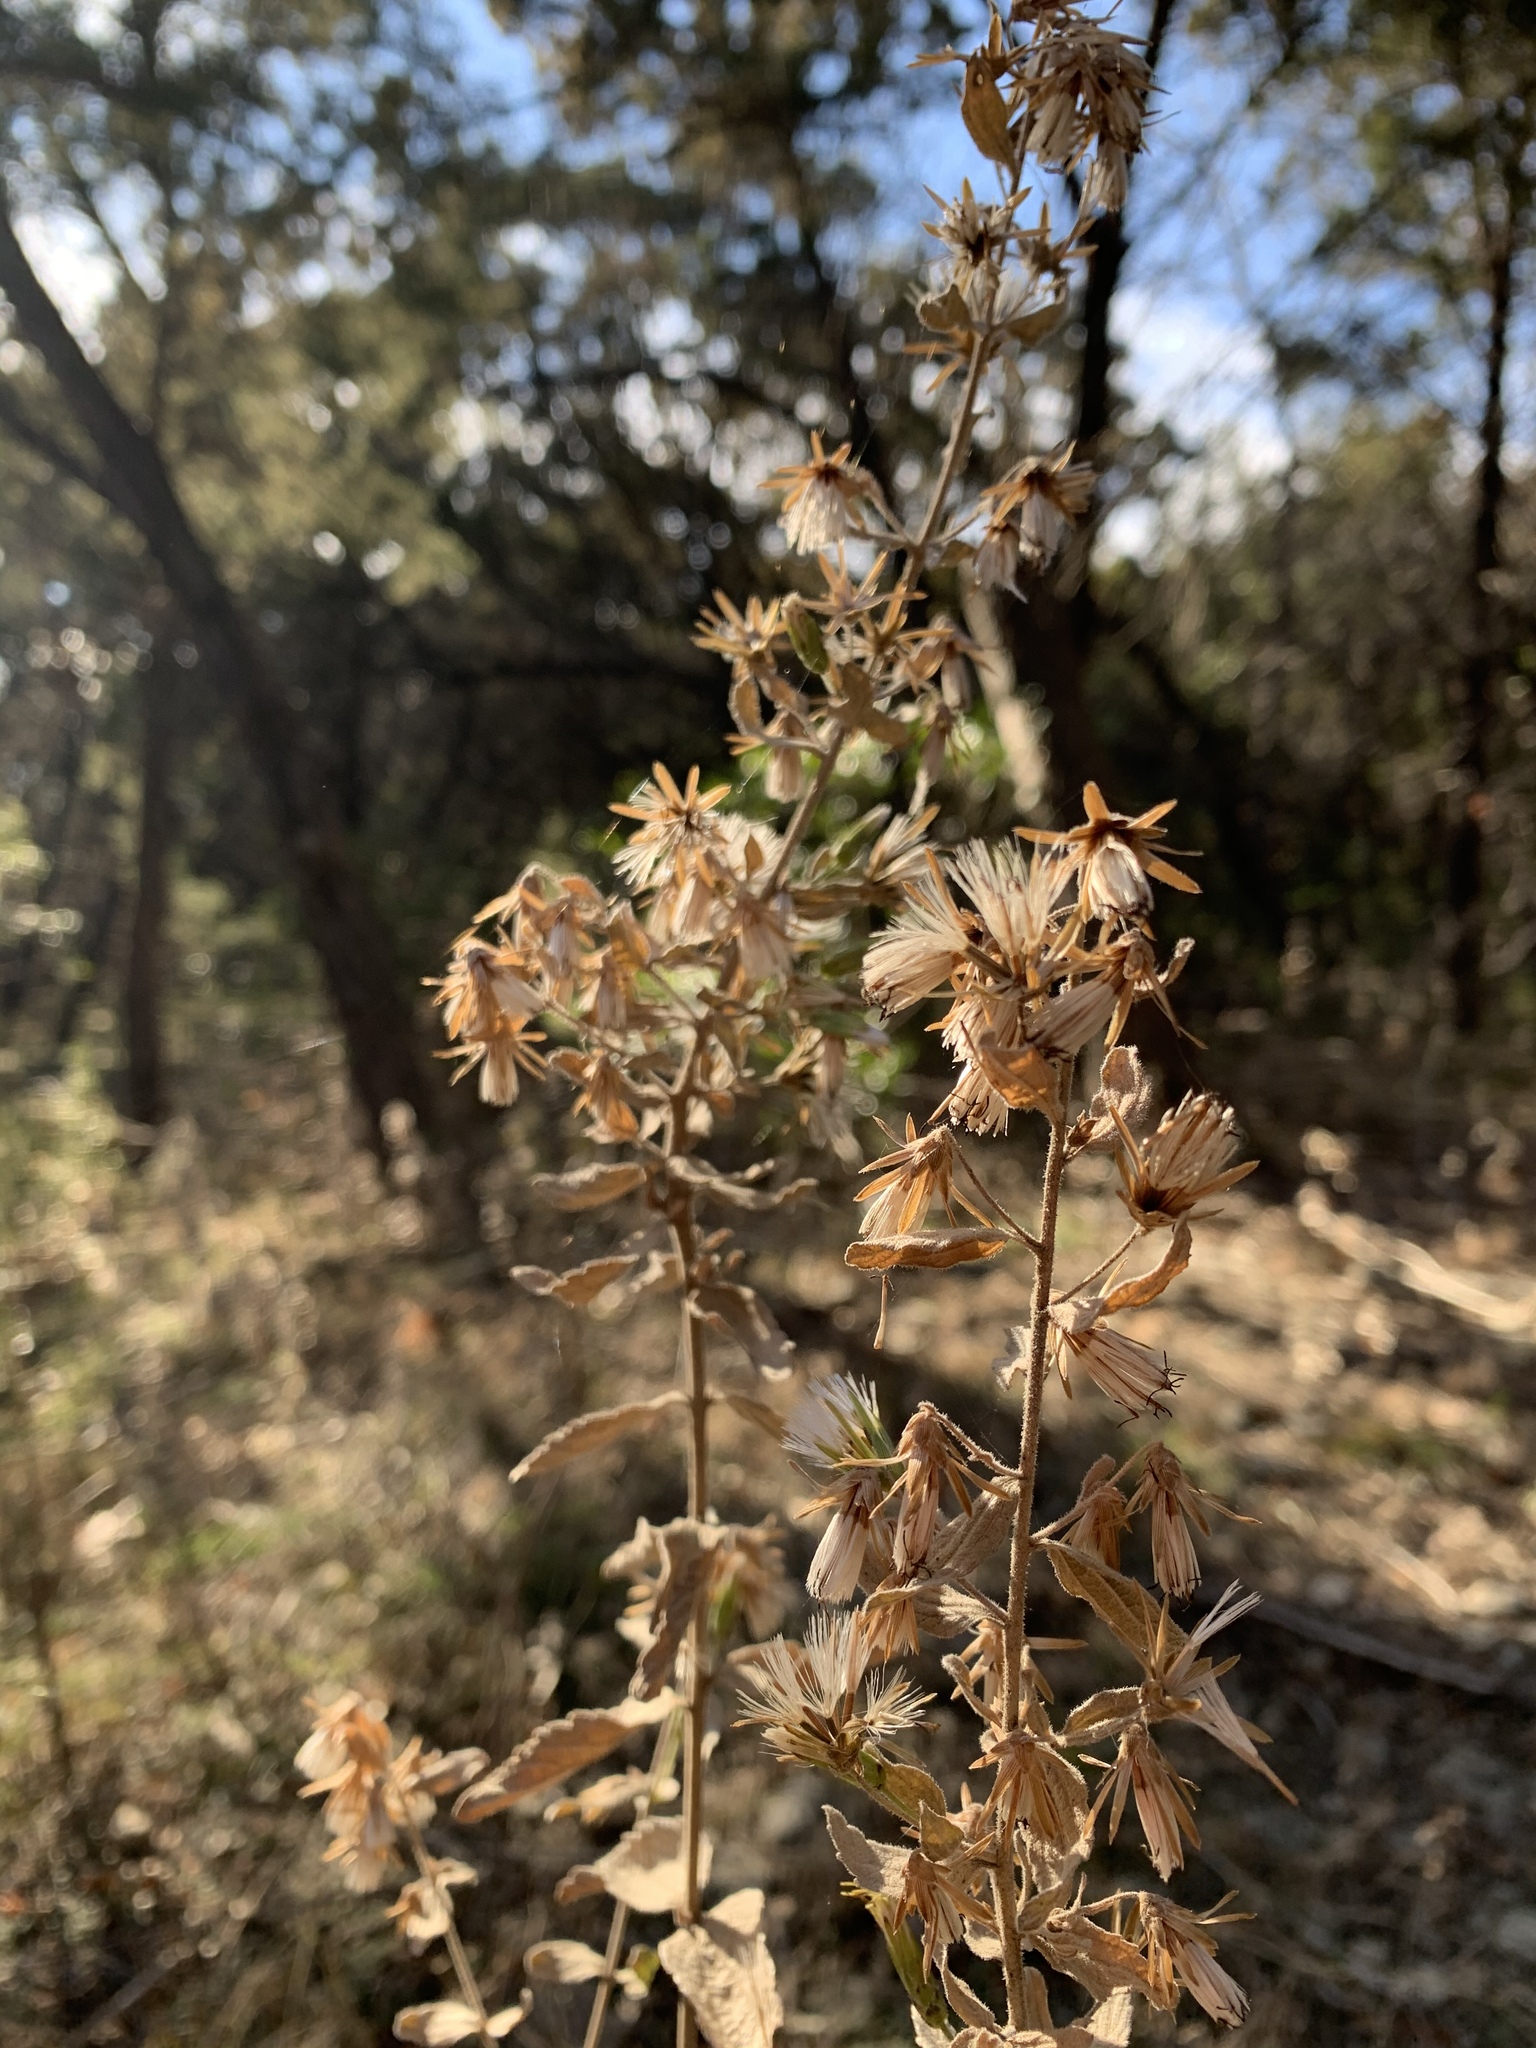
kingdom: Plantae
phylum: Tracheophyta
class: Magnoliopsida
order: Asterales
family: Asteraceae
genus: Brickellia
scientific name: Brickellia cylindracea
